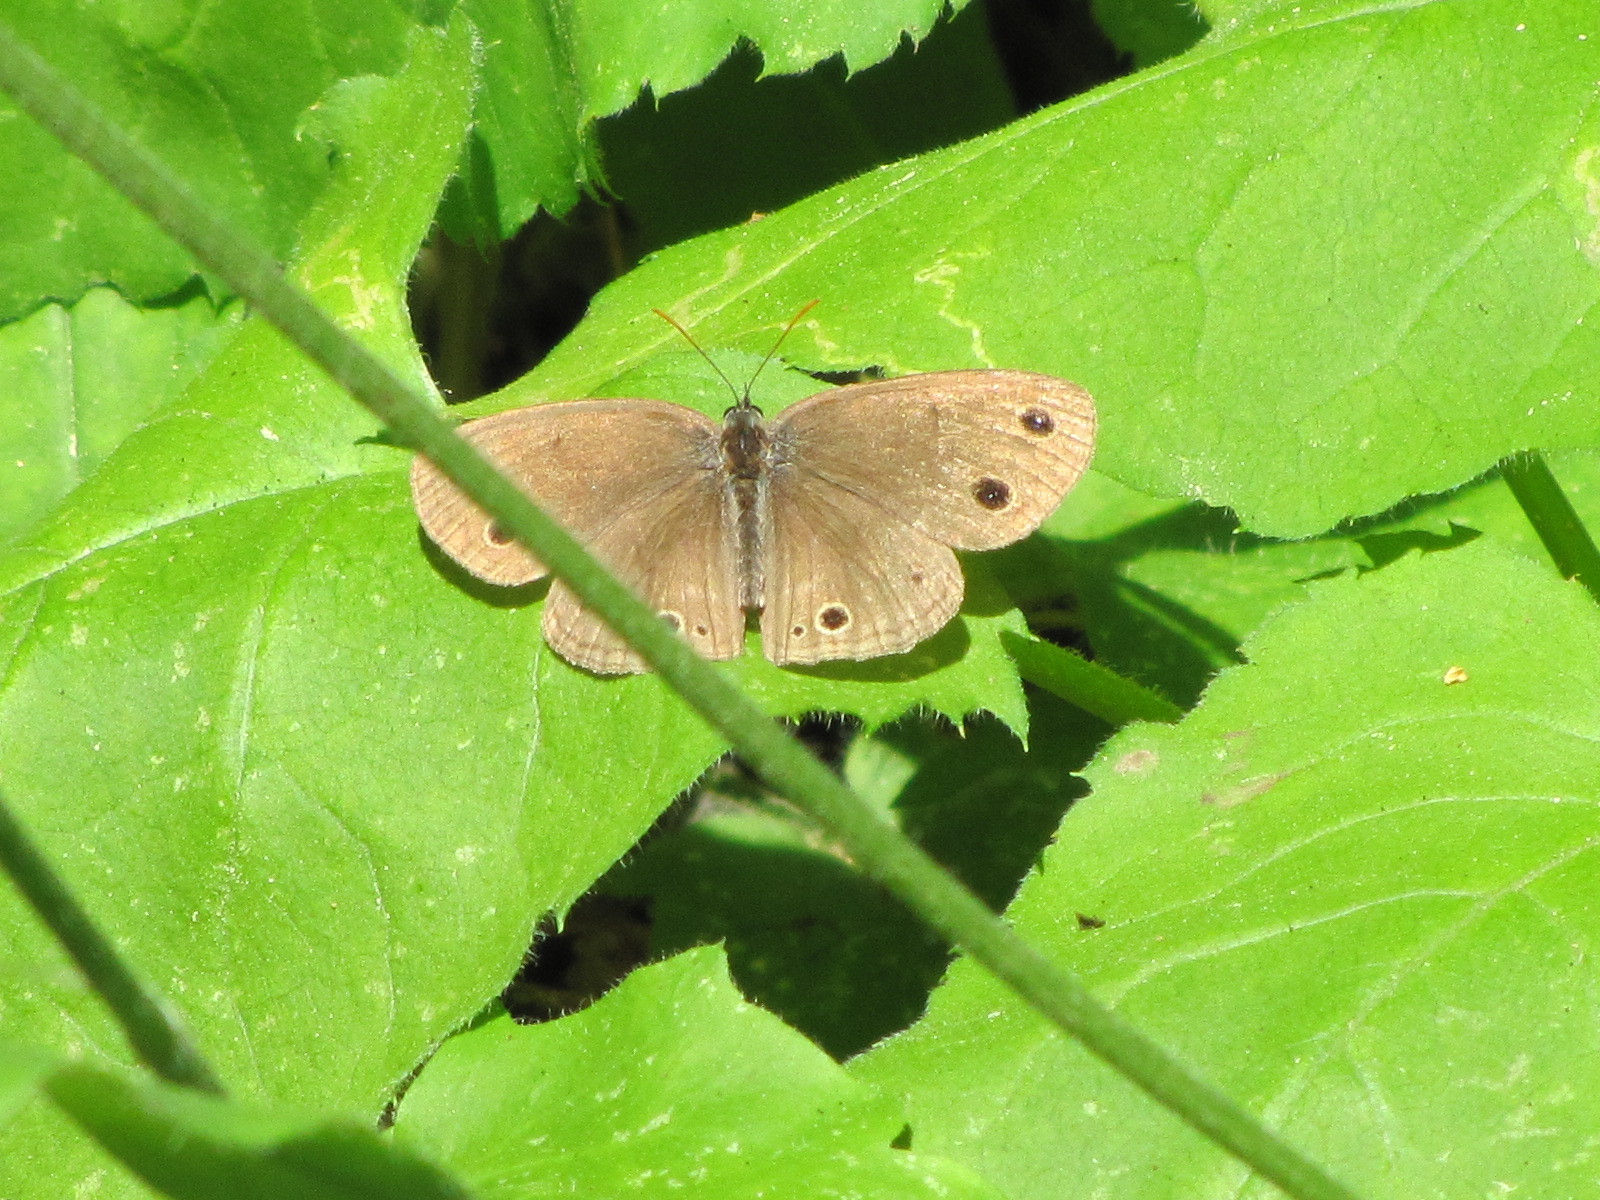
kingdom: Animalia
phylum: Arthropoda
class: Insecta
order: Lepidoptera
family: Nymphalidae
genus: Euptychia
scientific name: Euptychia cymela
